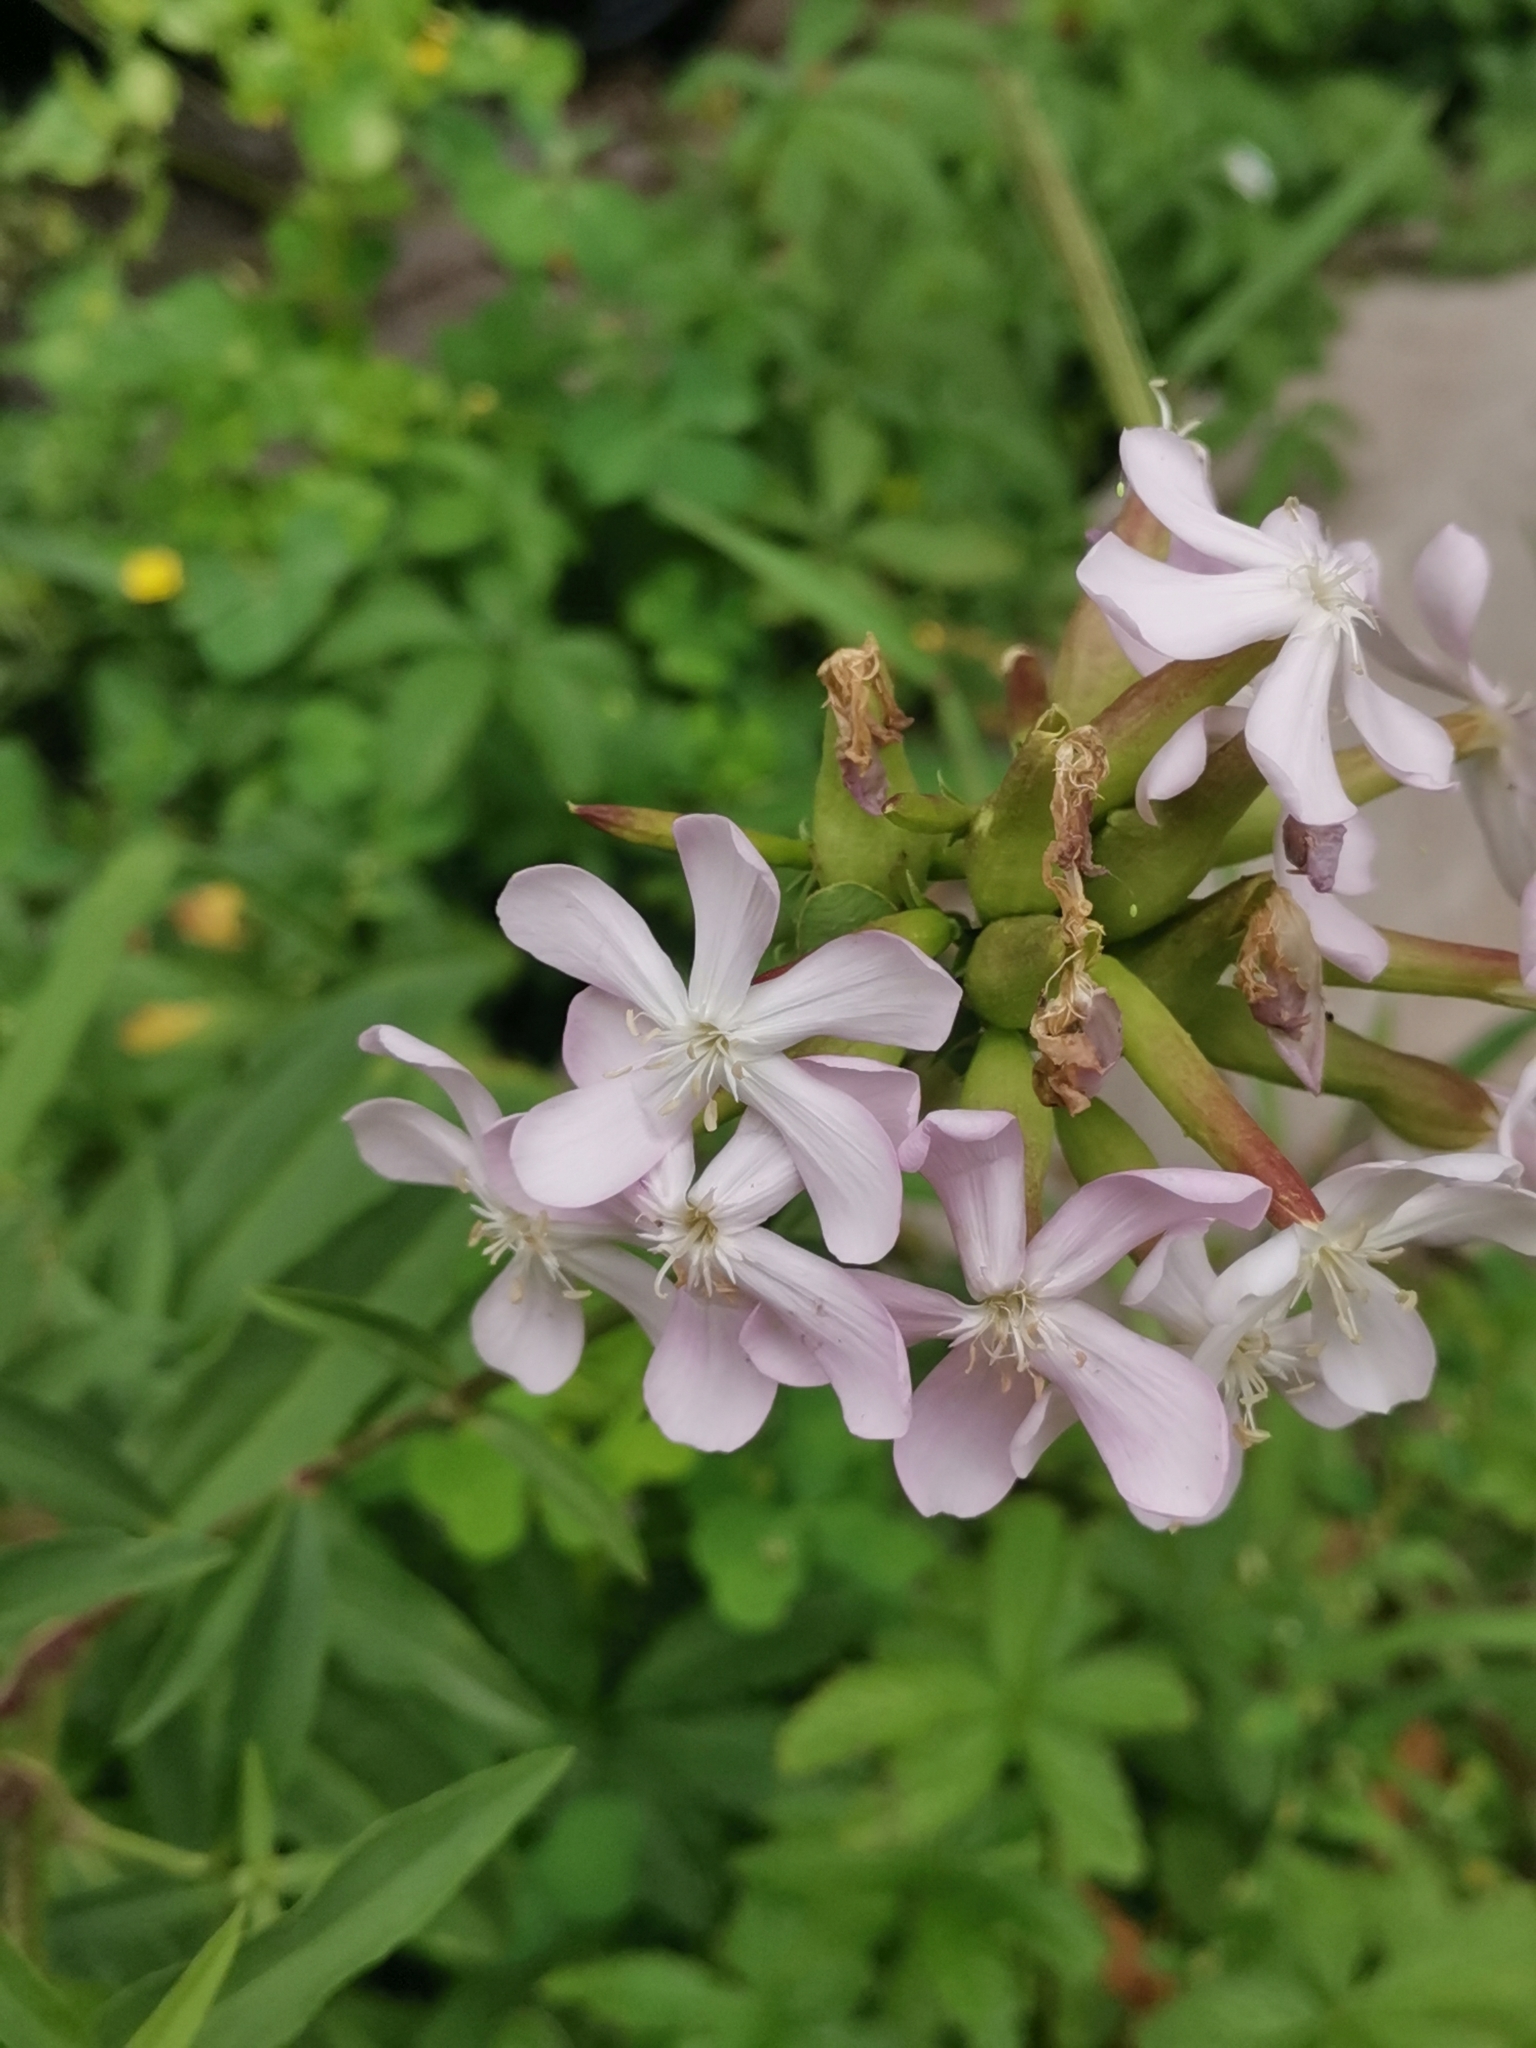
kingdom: Plantae
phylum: Tracheophyta
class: Magnoliopsida
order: Caryophyllales
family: Caryophyllaceae
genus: Saponaria
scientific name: Saponaria officinalis
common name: Soapwort
